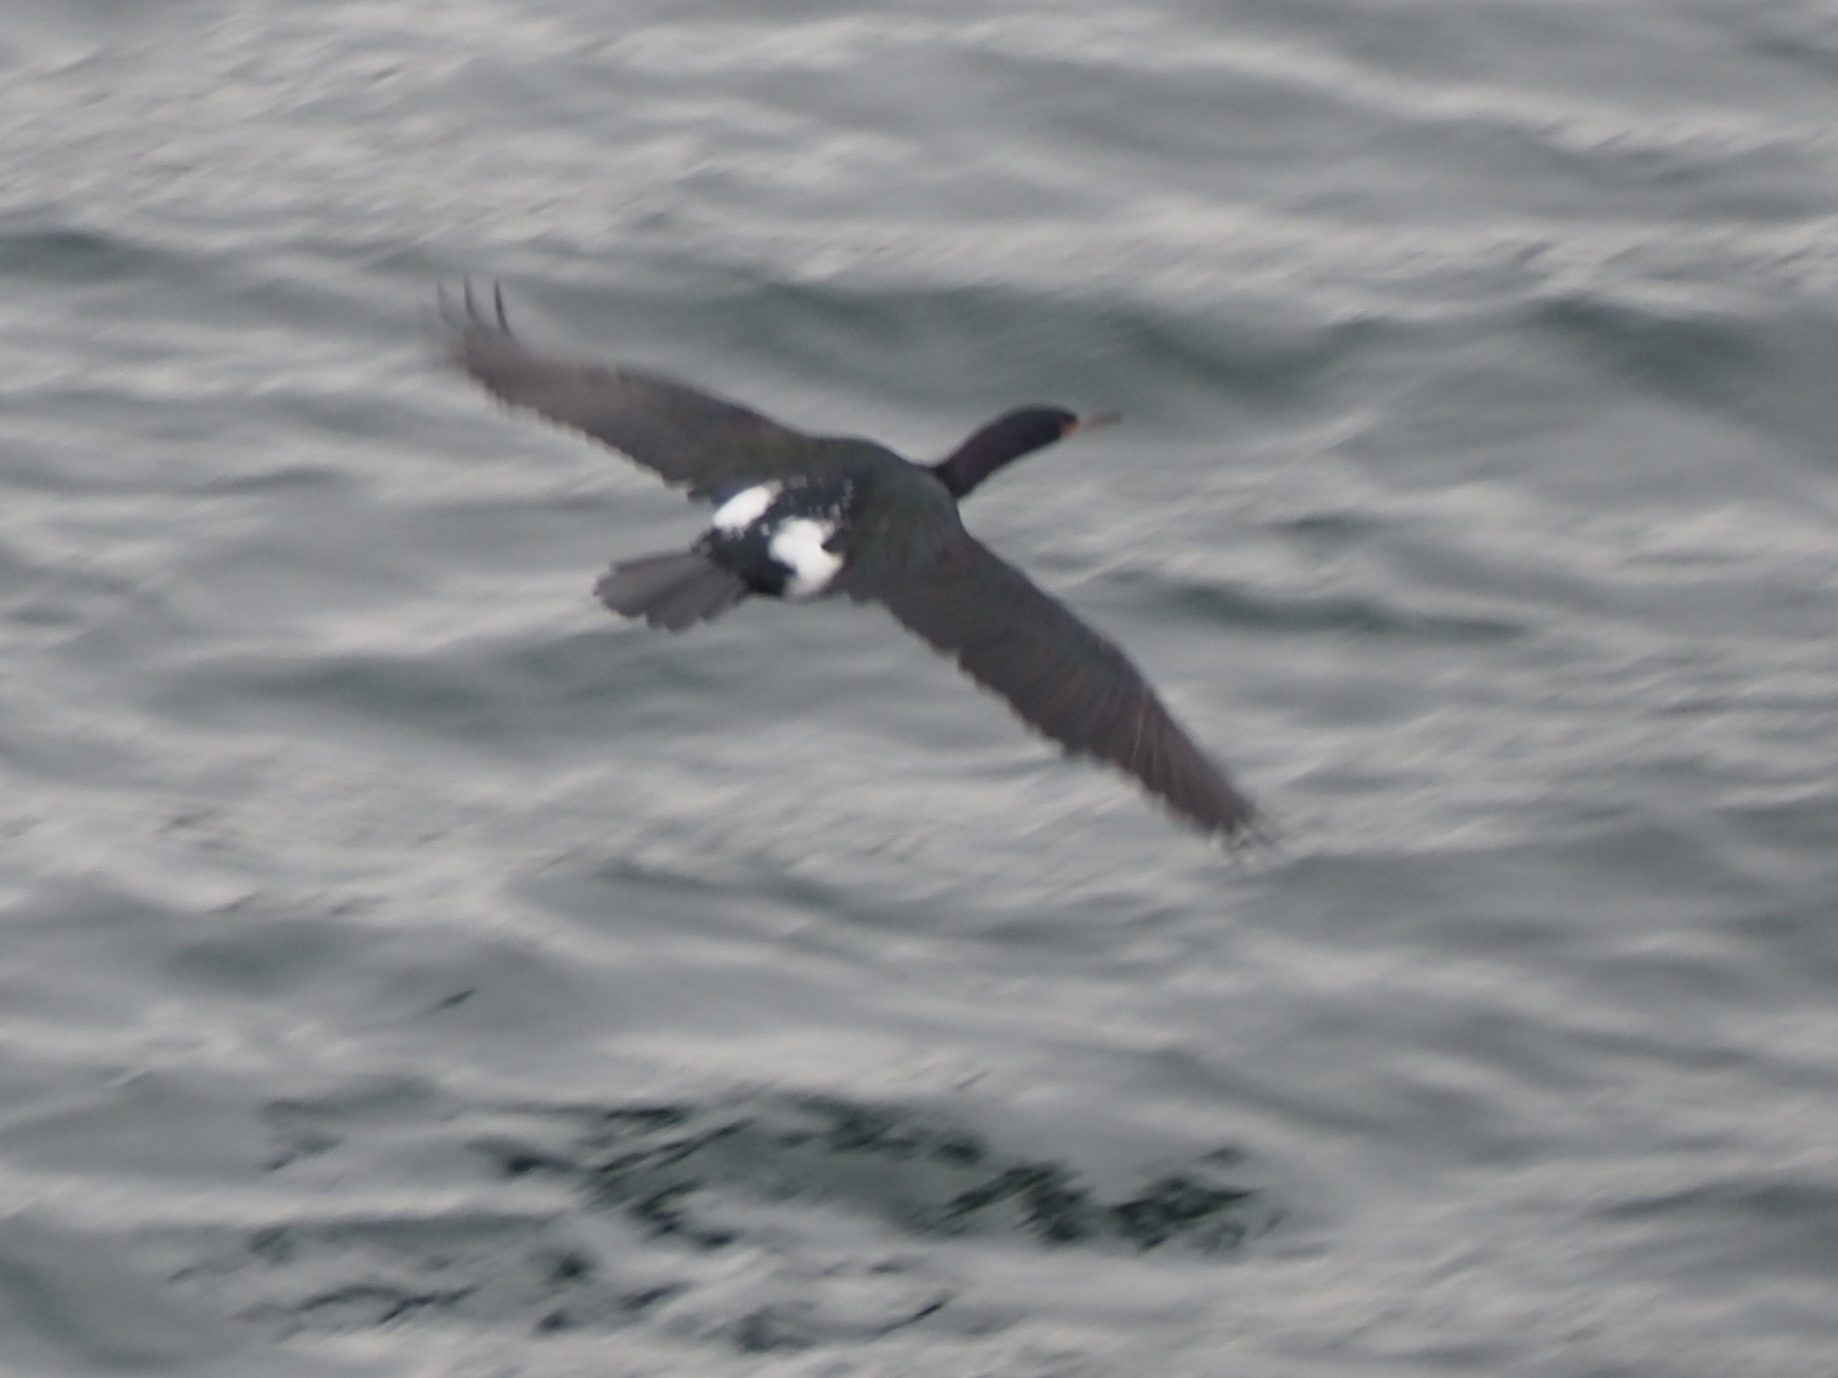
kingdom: Animalia
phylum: Chordata
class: Aves
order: Suliformes
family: Phalacrocoracidae
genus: Phalacrocorax
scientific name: Phalacrocorax pelagicus
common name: Pelagic cormorant
